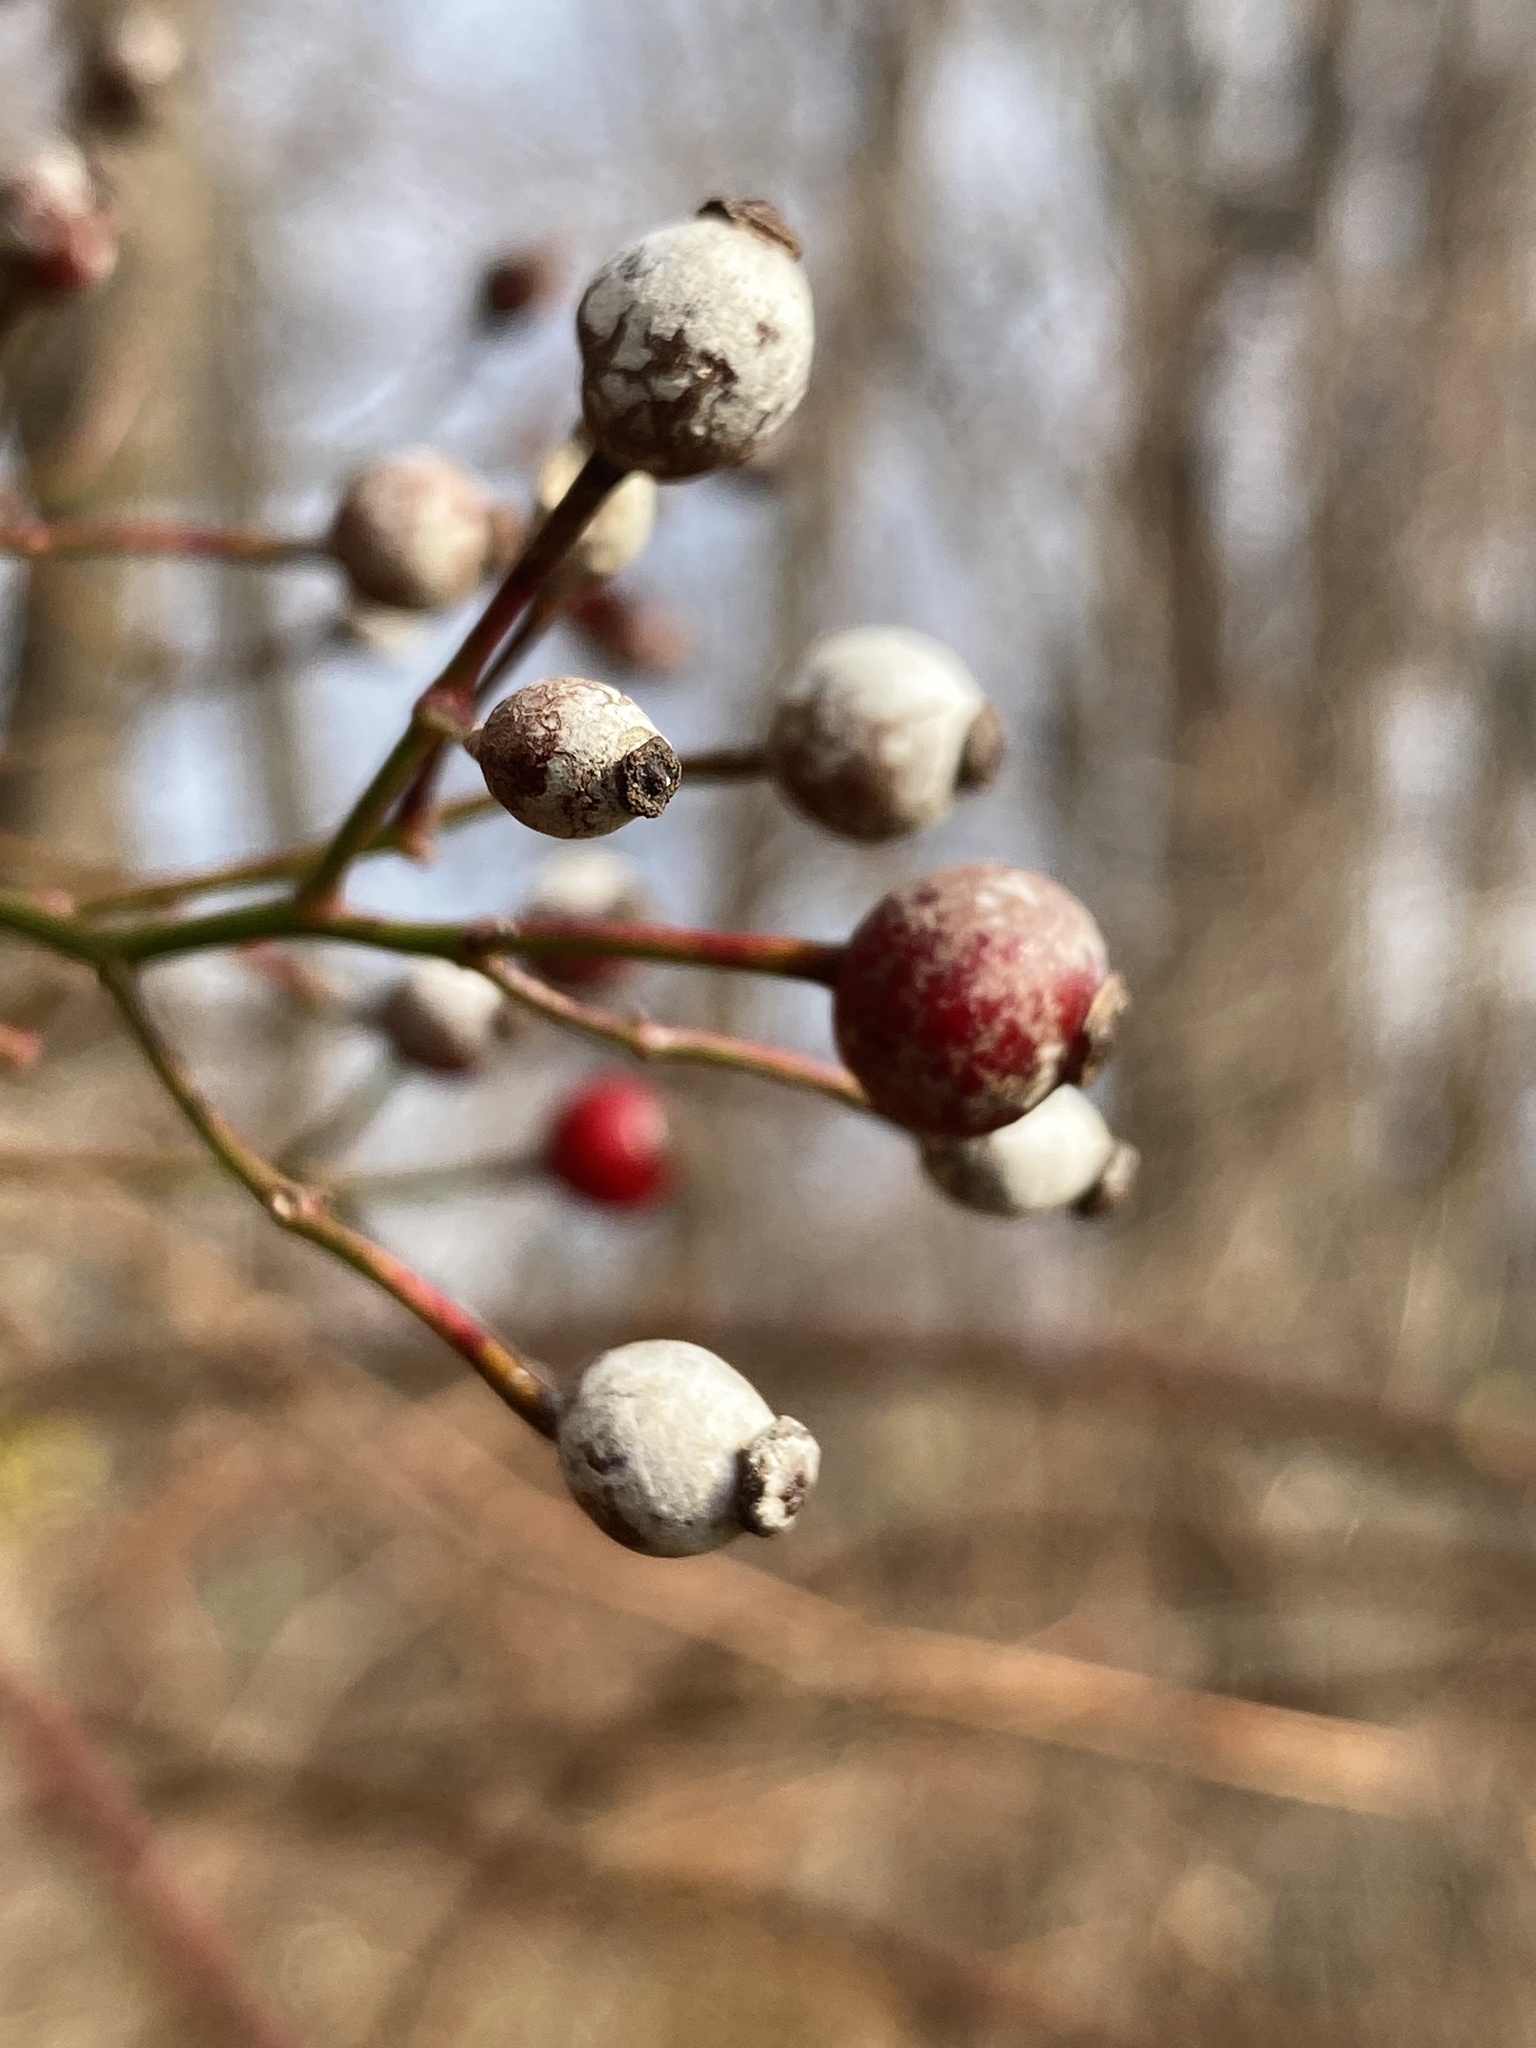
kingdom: Plantae
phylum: Tracheophyta
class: Magnoliopsida
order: Rosales
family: Rosaceae
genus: Rosa
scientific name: Rosa multiflora
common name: Multiflora rose
